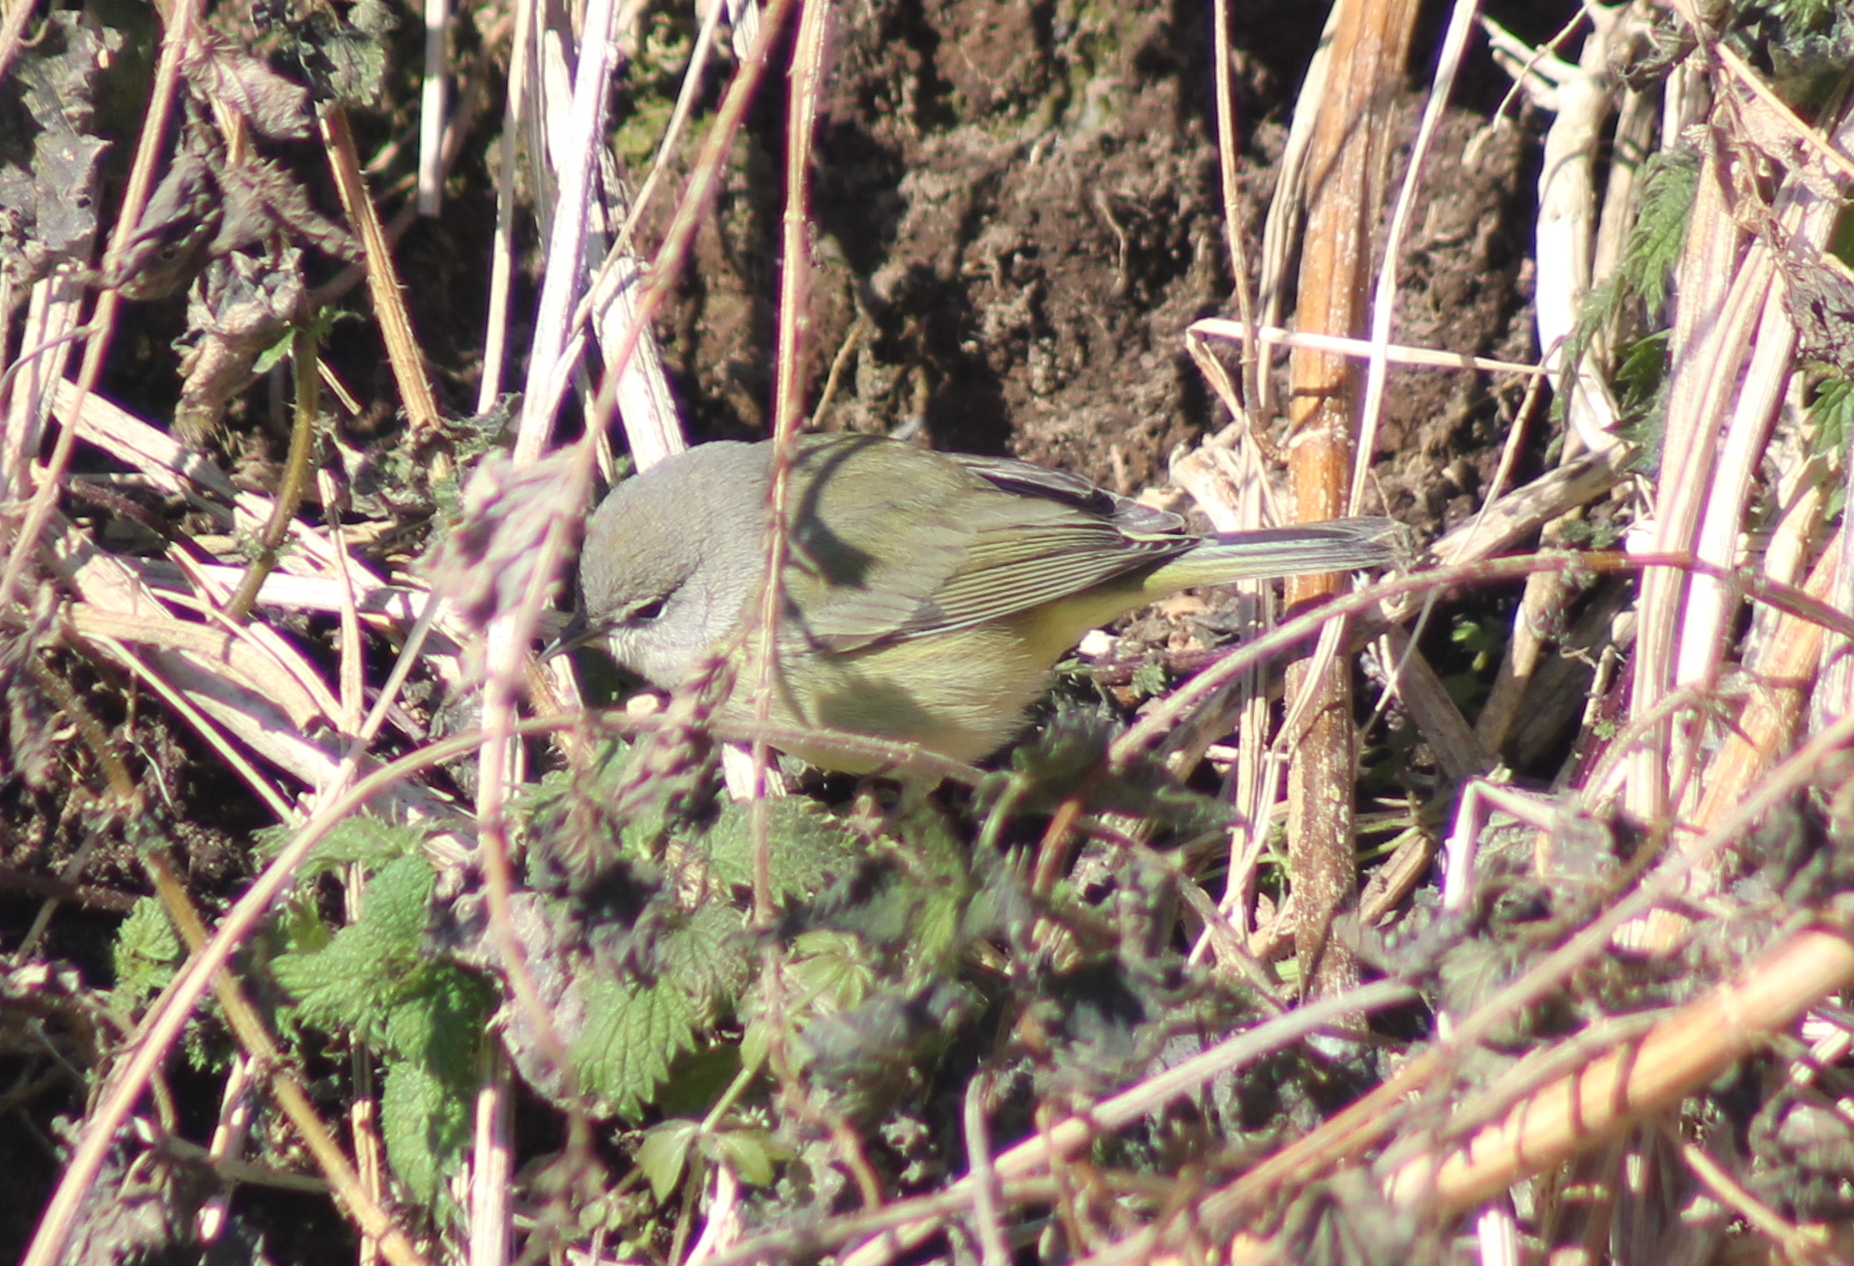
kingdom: Animalia
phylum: Chordata
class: Aves
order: Passeriformes
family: Parulidae
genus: Leiothlypis
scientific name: Leiothlypis celata
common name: Orange-crowned warbler
